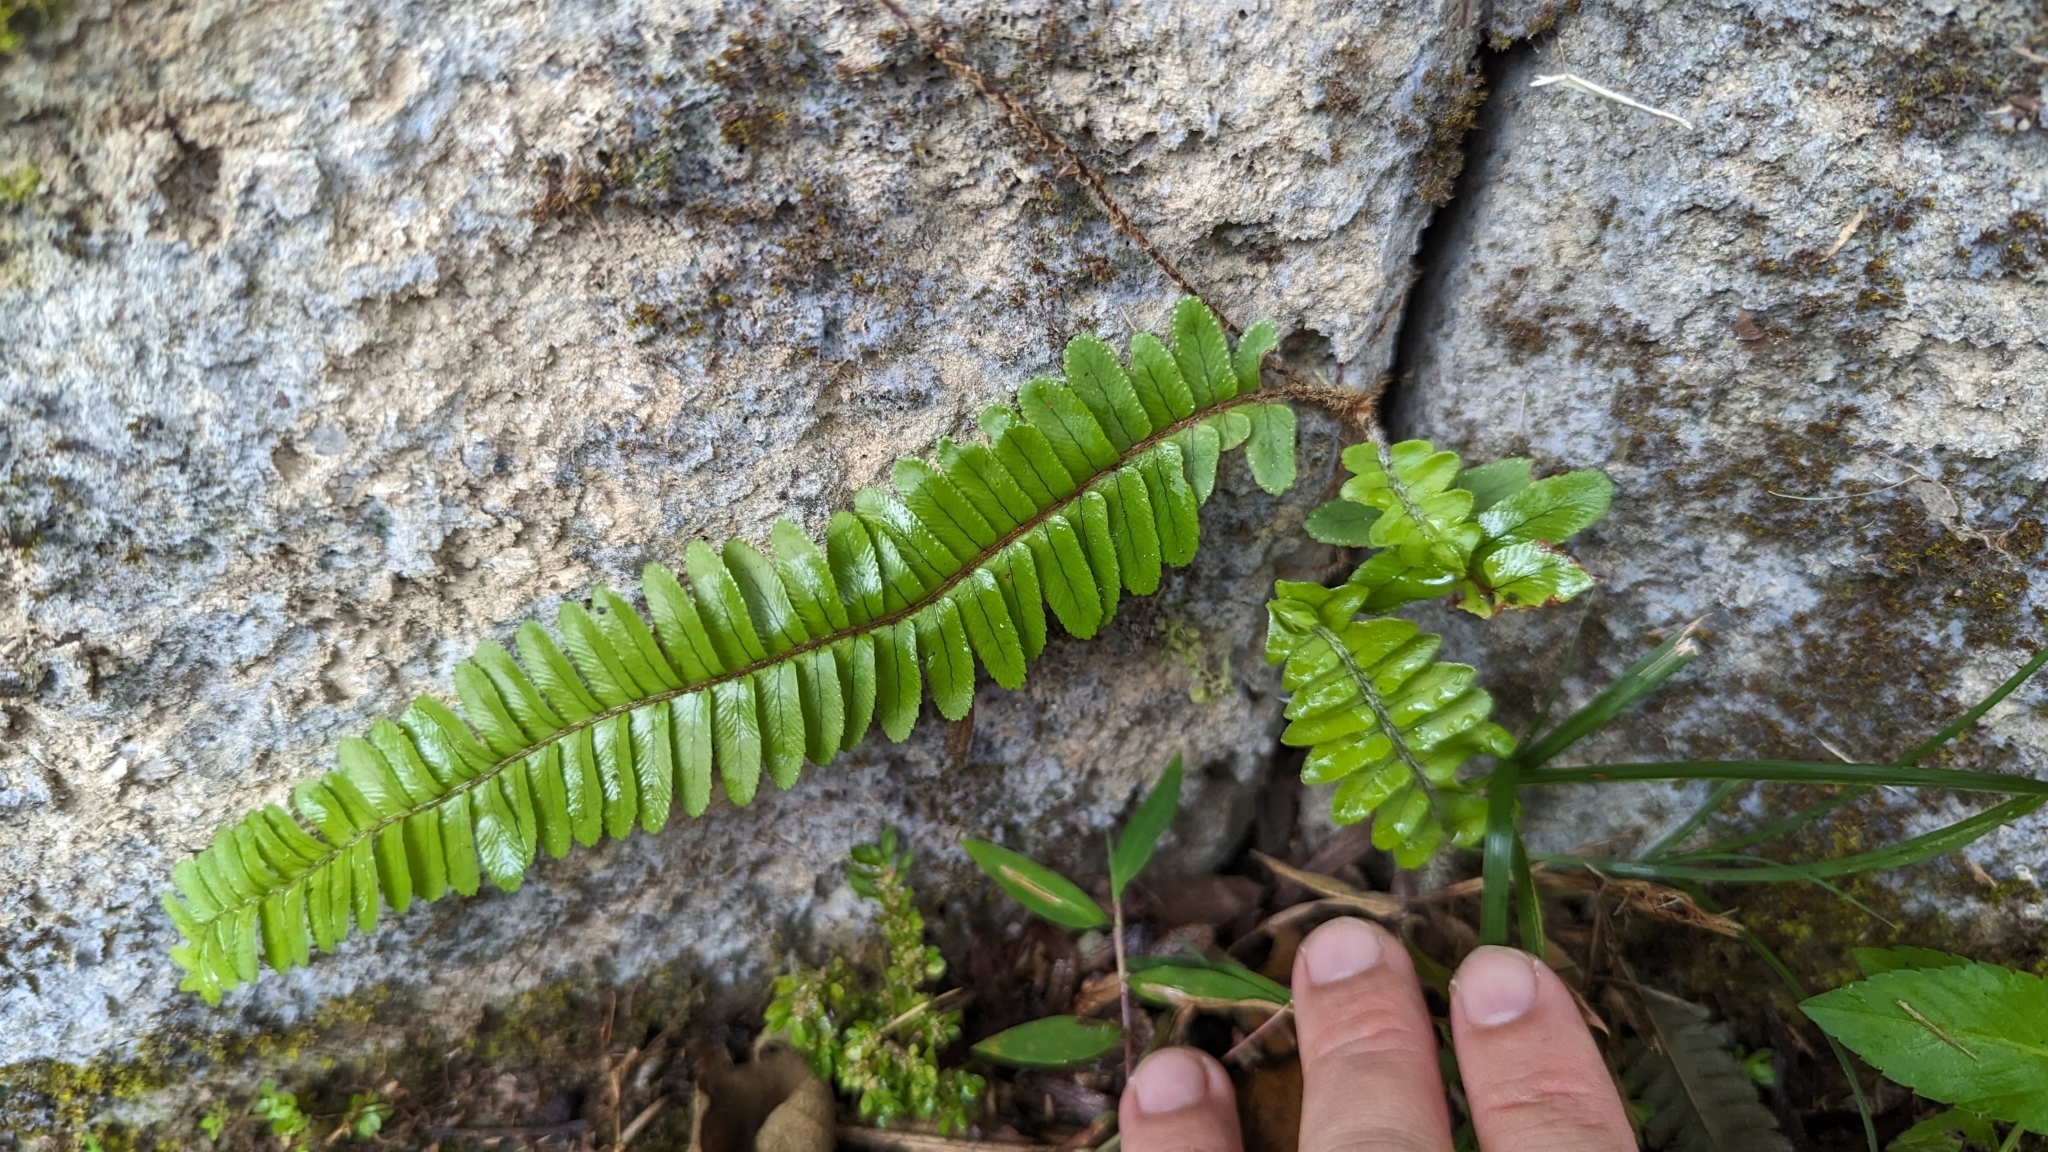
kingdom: Plantae
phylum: Tracheophyta
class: Polypodiopsida
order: Polypodiales
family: Nephrolepidaceae
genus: Nephrolepis
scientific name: Nephrolepis cordifolia
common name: Narrow swordfern
